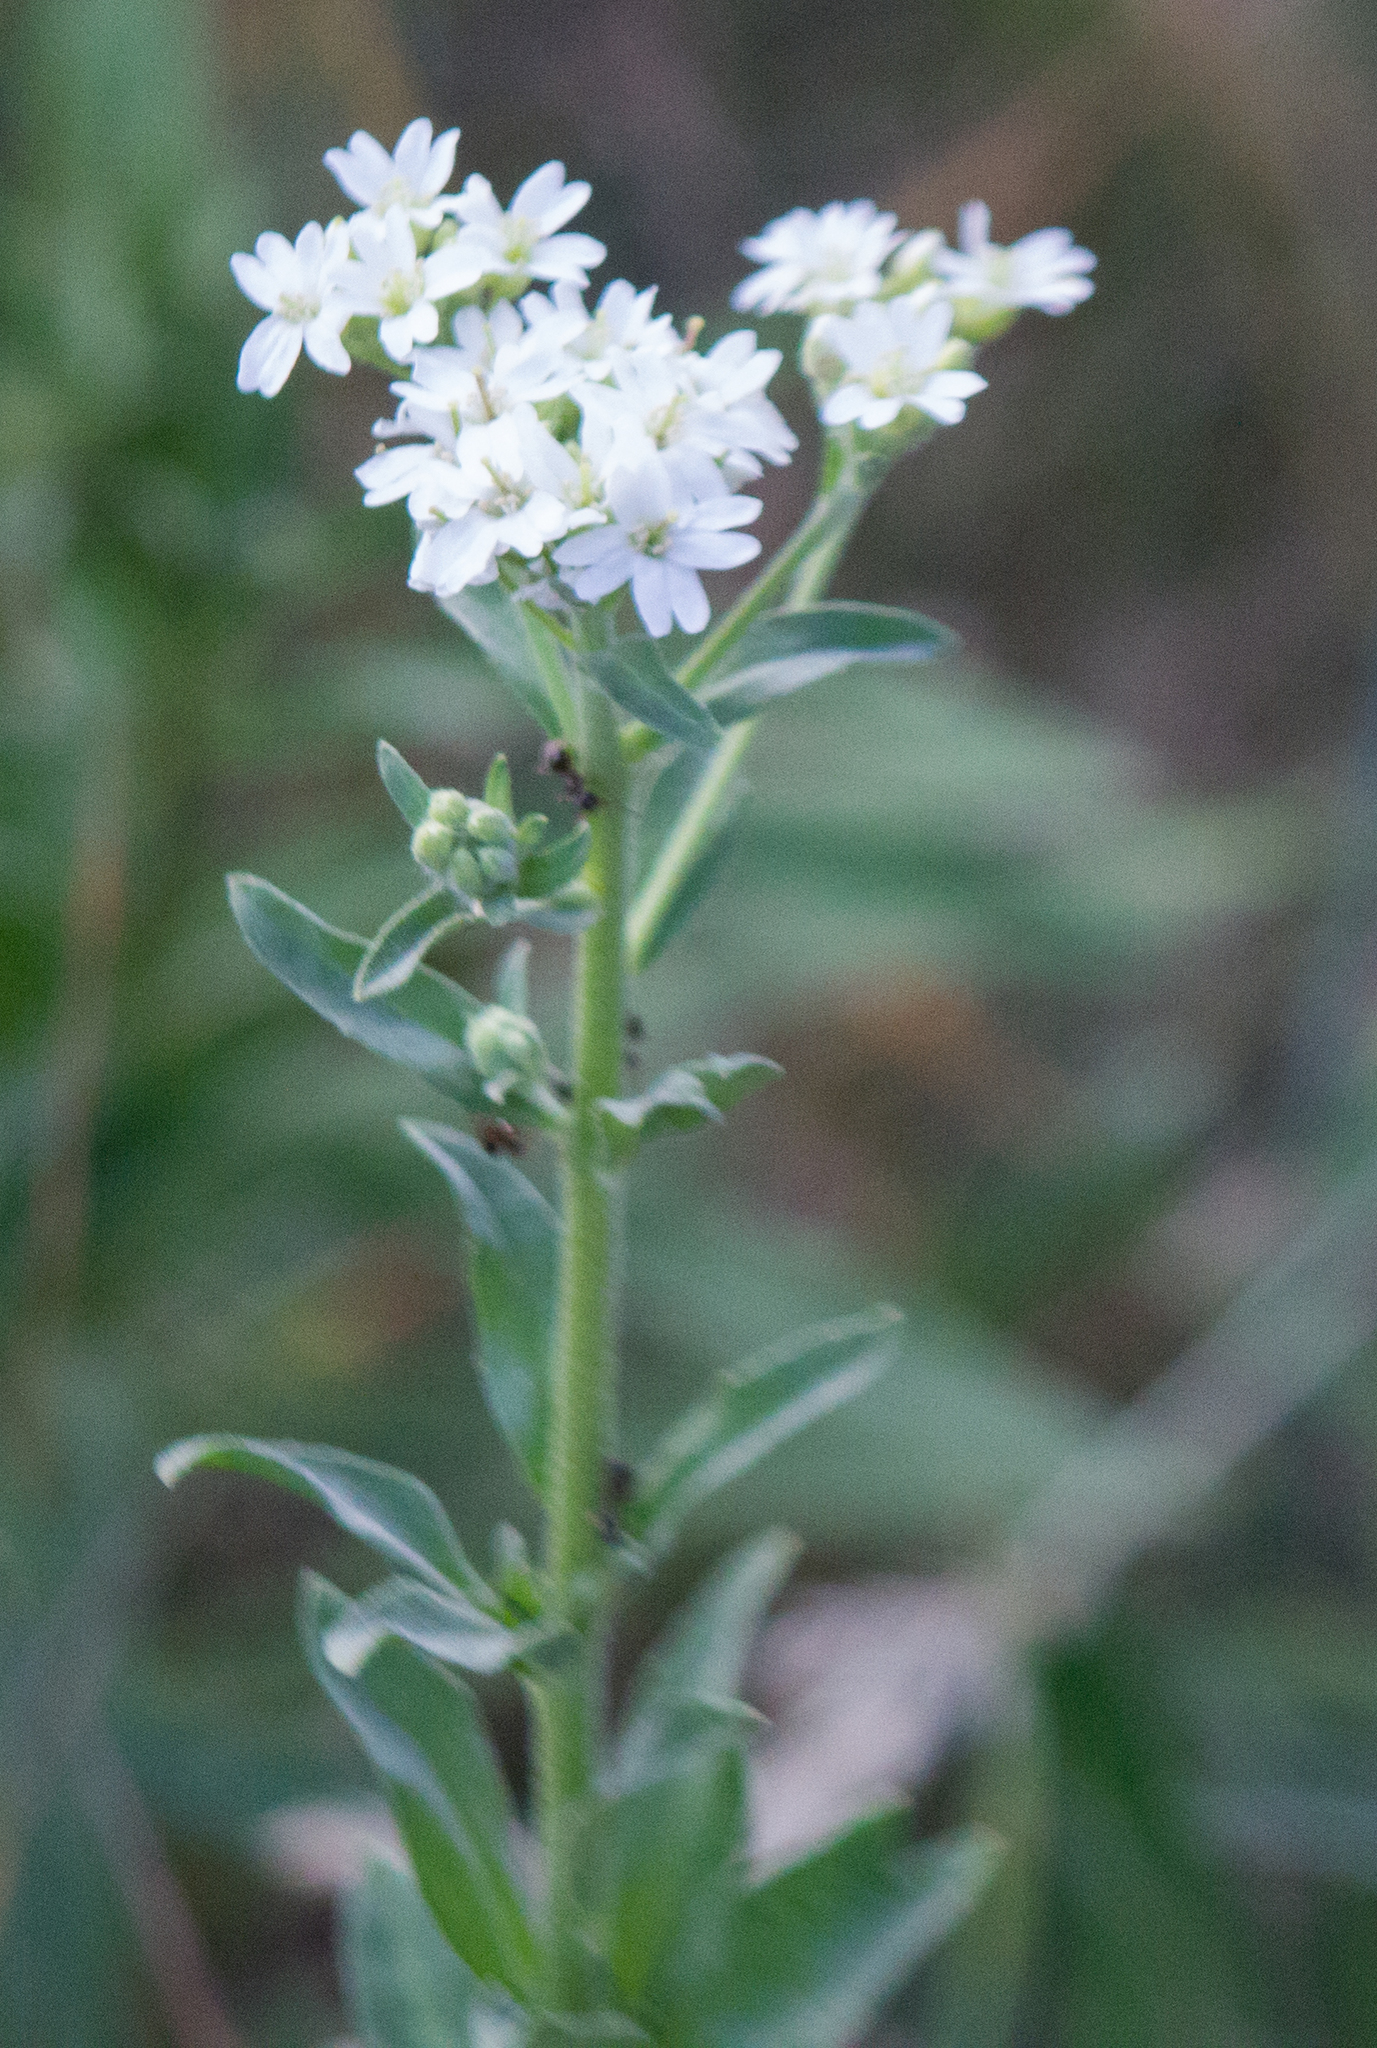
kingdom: Plantae
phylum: Tracheophyta
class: Magnoliopsida
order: Brassicales
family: Brassicaceae
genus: Berteroa
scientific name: Berteroa incana
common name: Hoary alison
